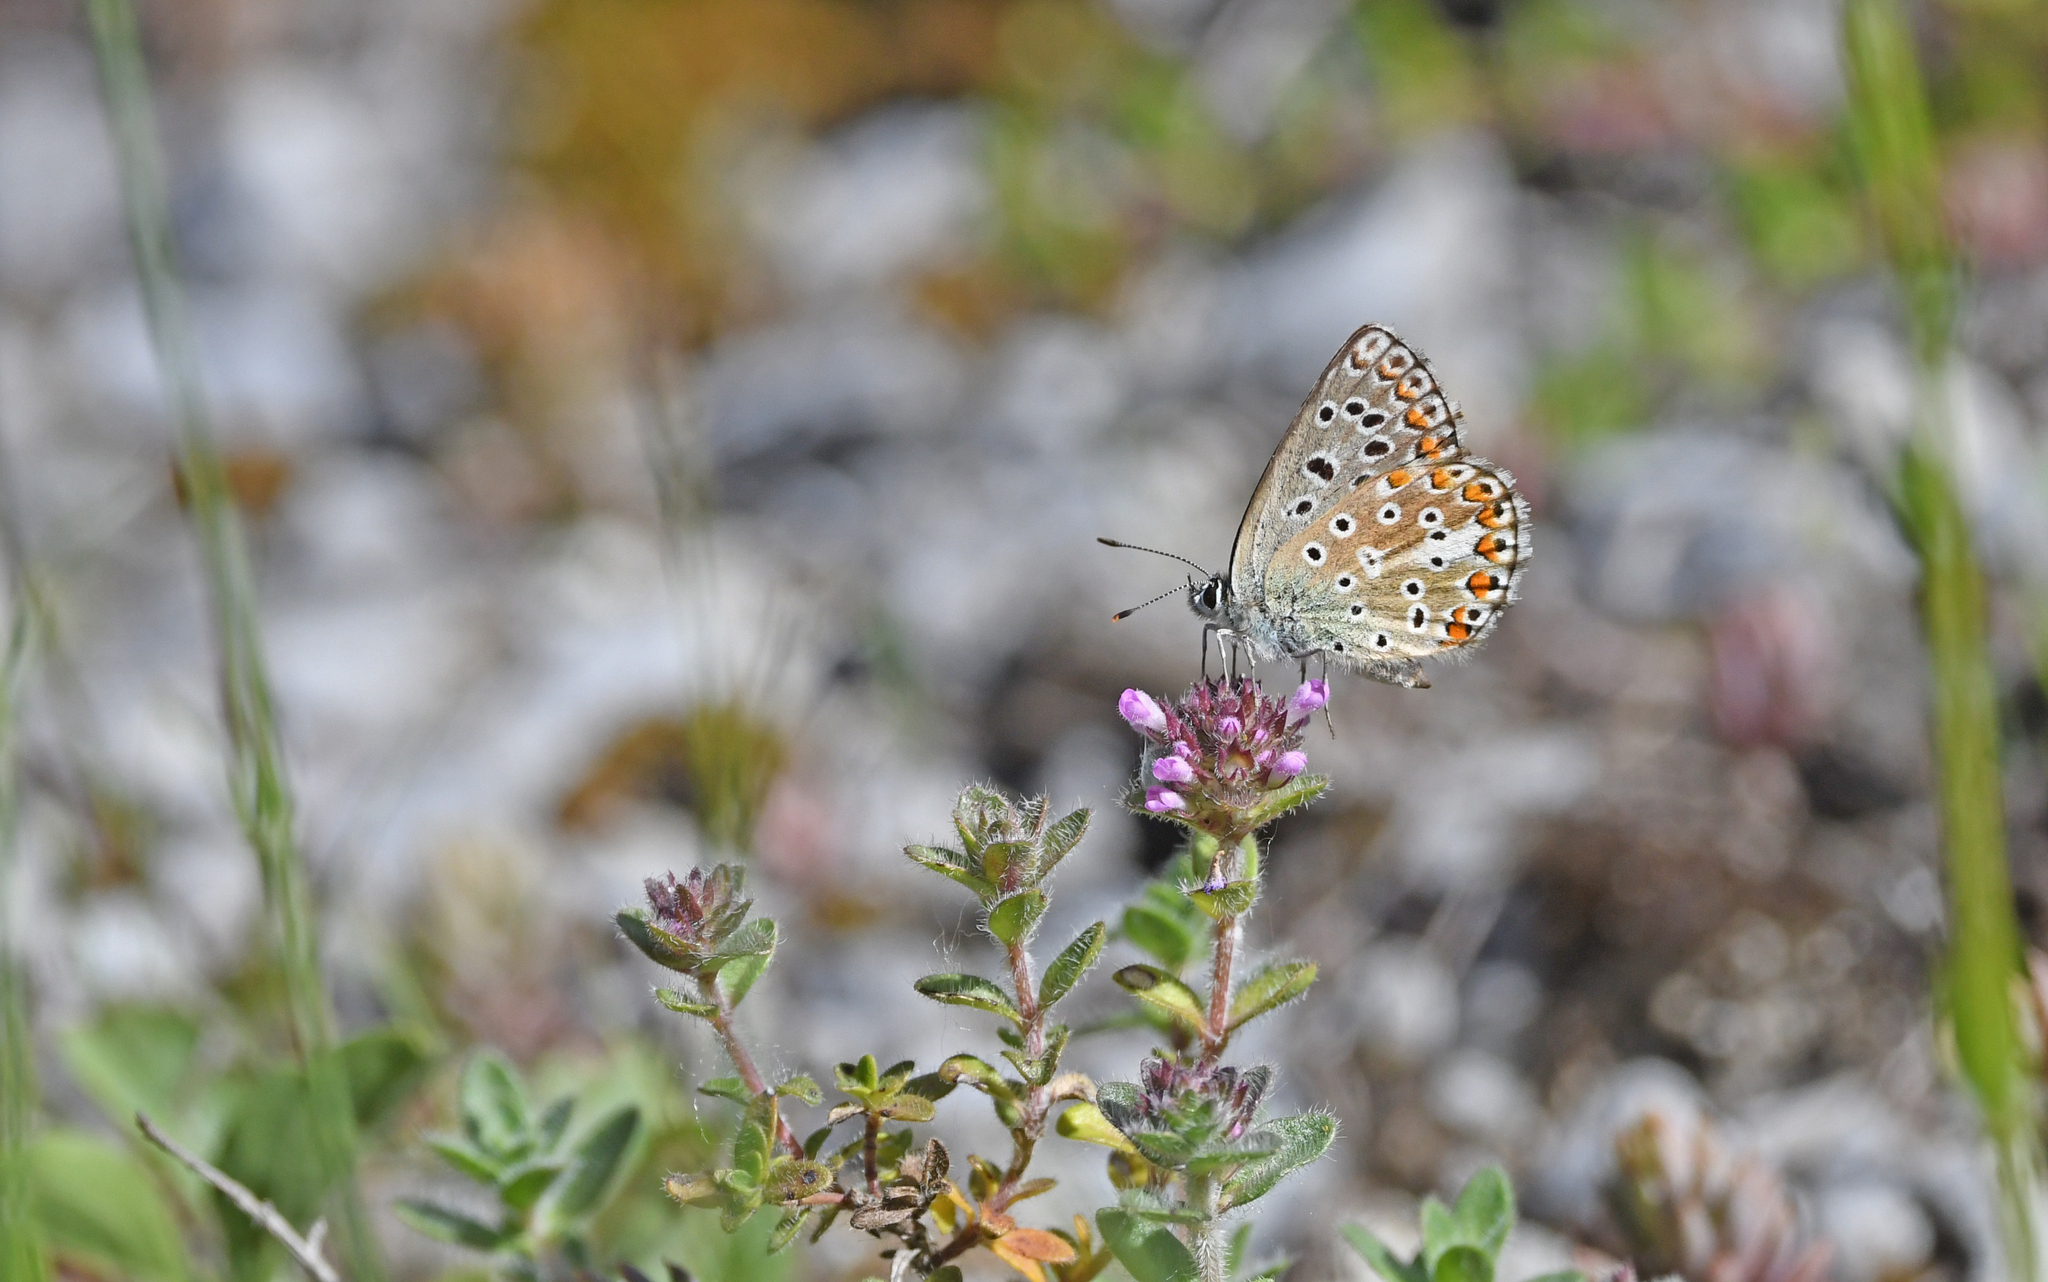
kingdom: Animalia
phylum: Arthropoda
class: Insecta
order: Lepidoptera
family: Lycaenidae
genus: Lysandra
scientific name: Lysandra bellargus
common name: Adonis blue
